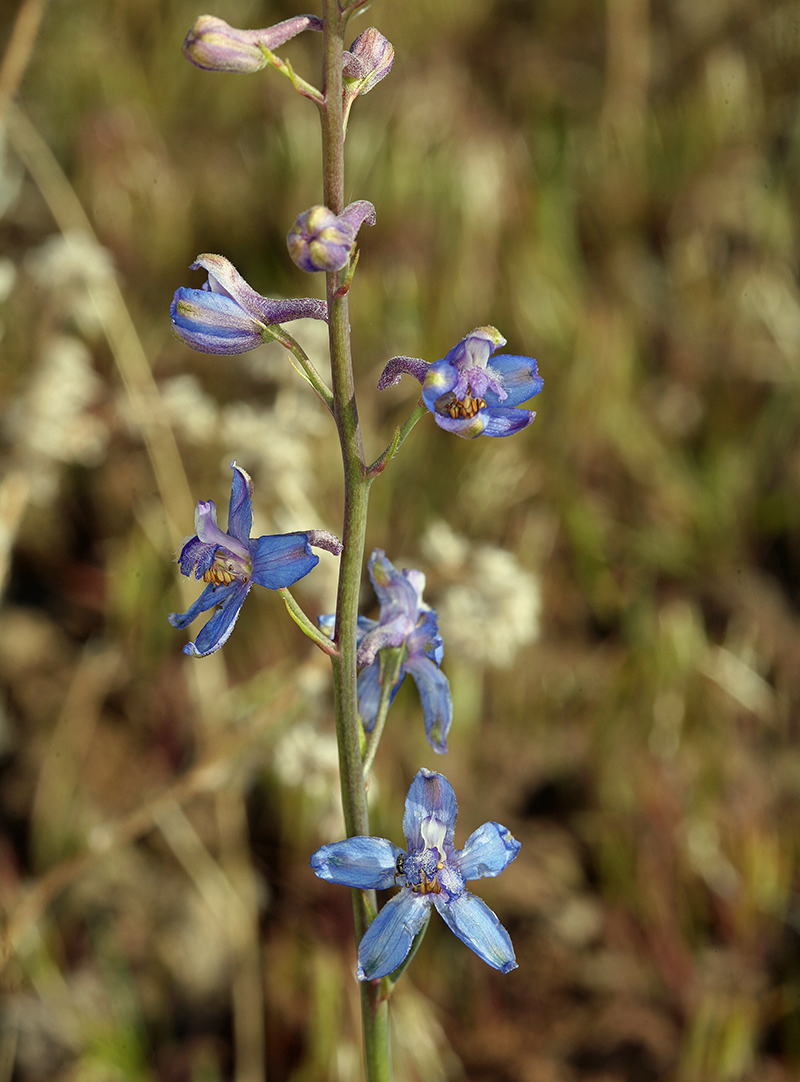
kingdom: Plantae
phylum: Tracheophyta
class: Magnoliopsida
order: Ranunculales
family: Ranunculaceae
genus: Delphinium
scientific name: Delphinium parishii
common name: Apache larkspur
